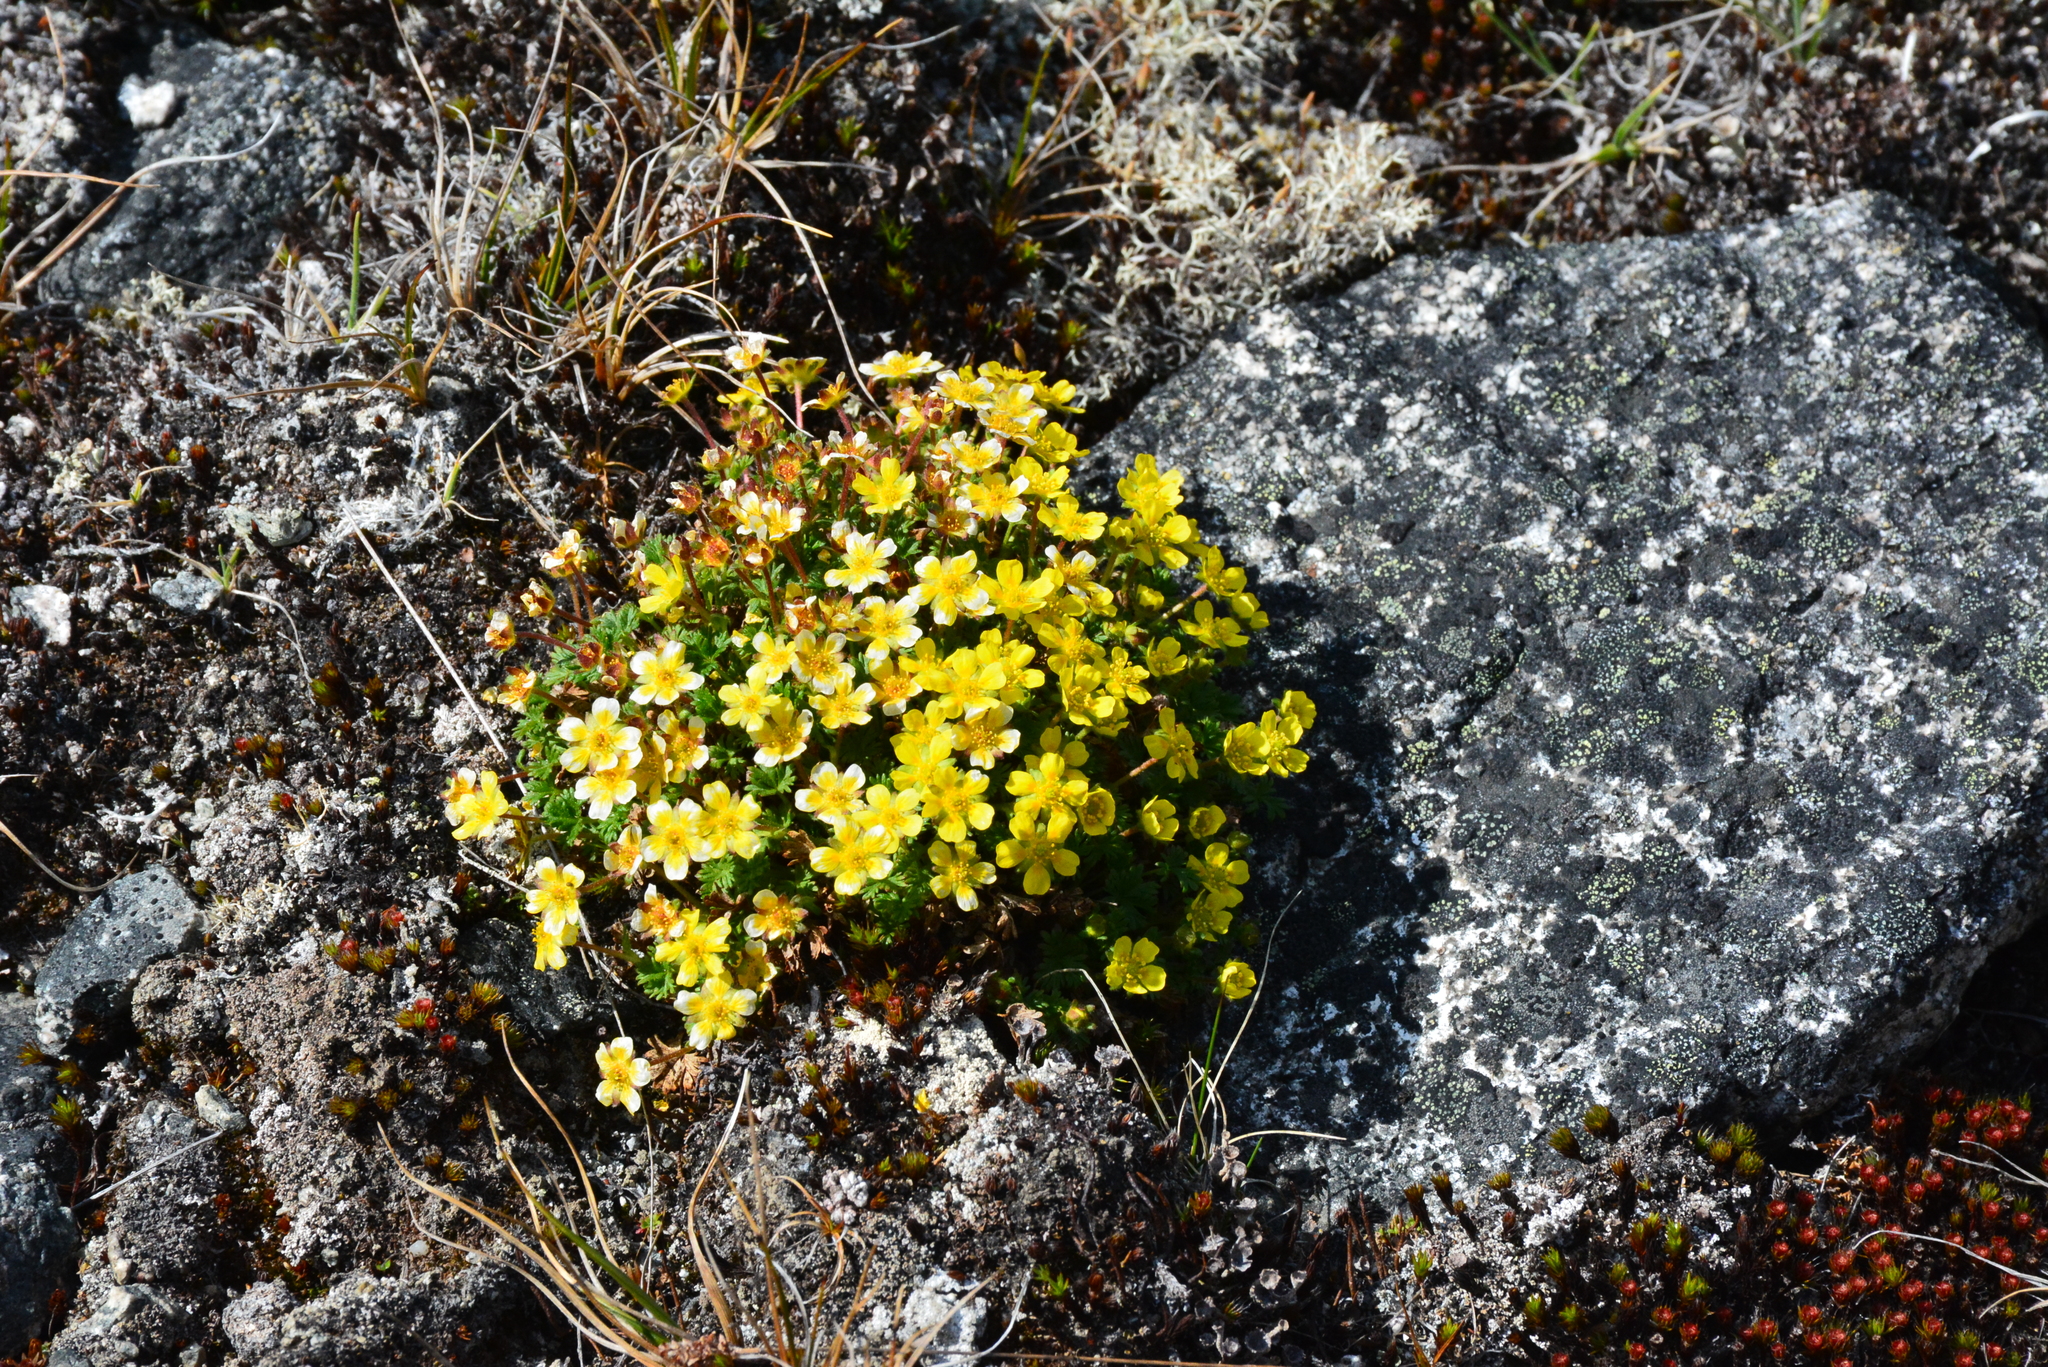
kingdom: Plantae
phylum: Tracheophyta
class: Magnoliopsida
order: Rosales
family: Rosaceae
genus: Potentilla
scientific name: Potentilla elegans
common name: Elegant cinquefoil
